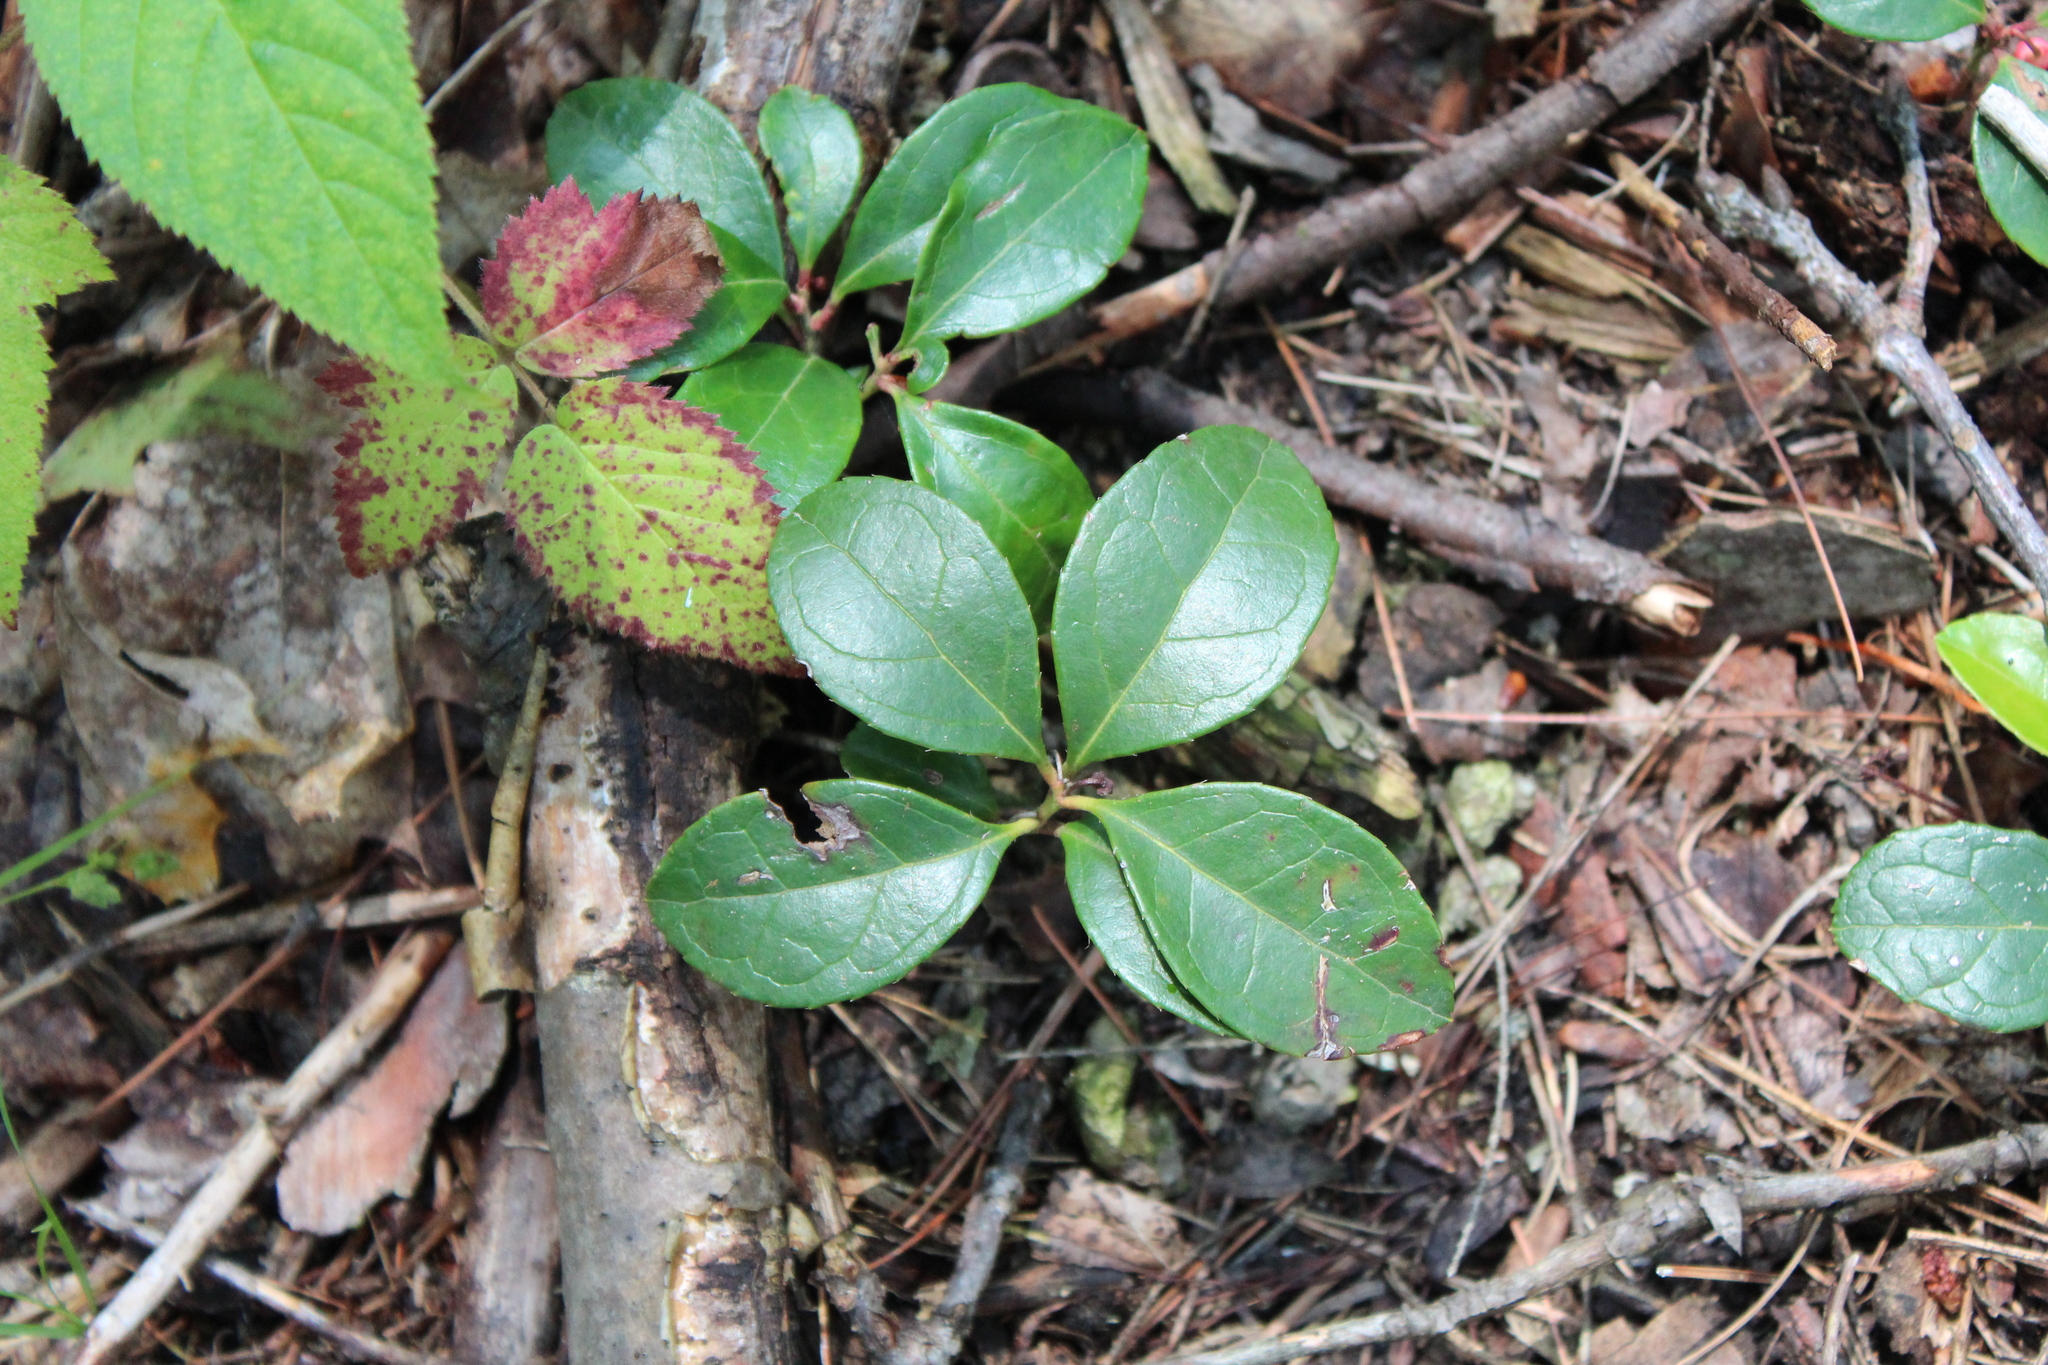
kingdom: Plantae
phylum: Tracheophyta
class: Magnoliopsida
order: Ericales
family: Ericaceae
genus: Gaultheria
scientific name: Gaultheria procumbens
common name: Checkerberry
